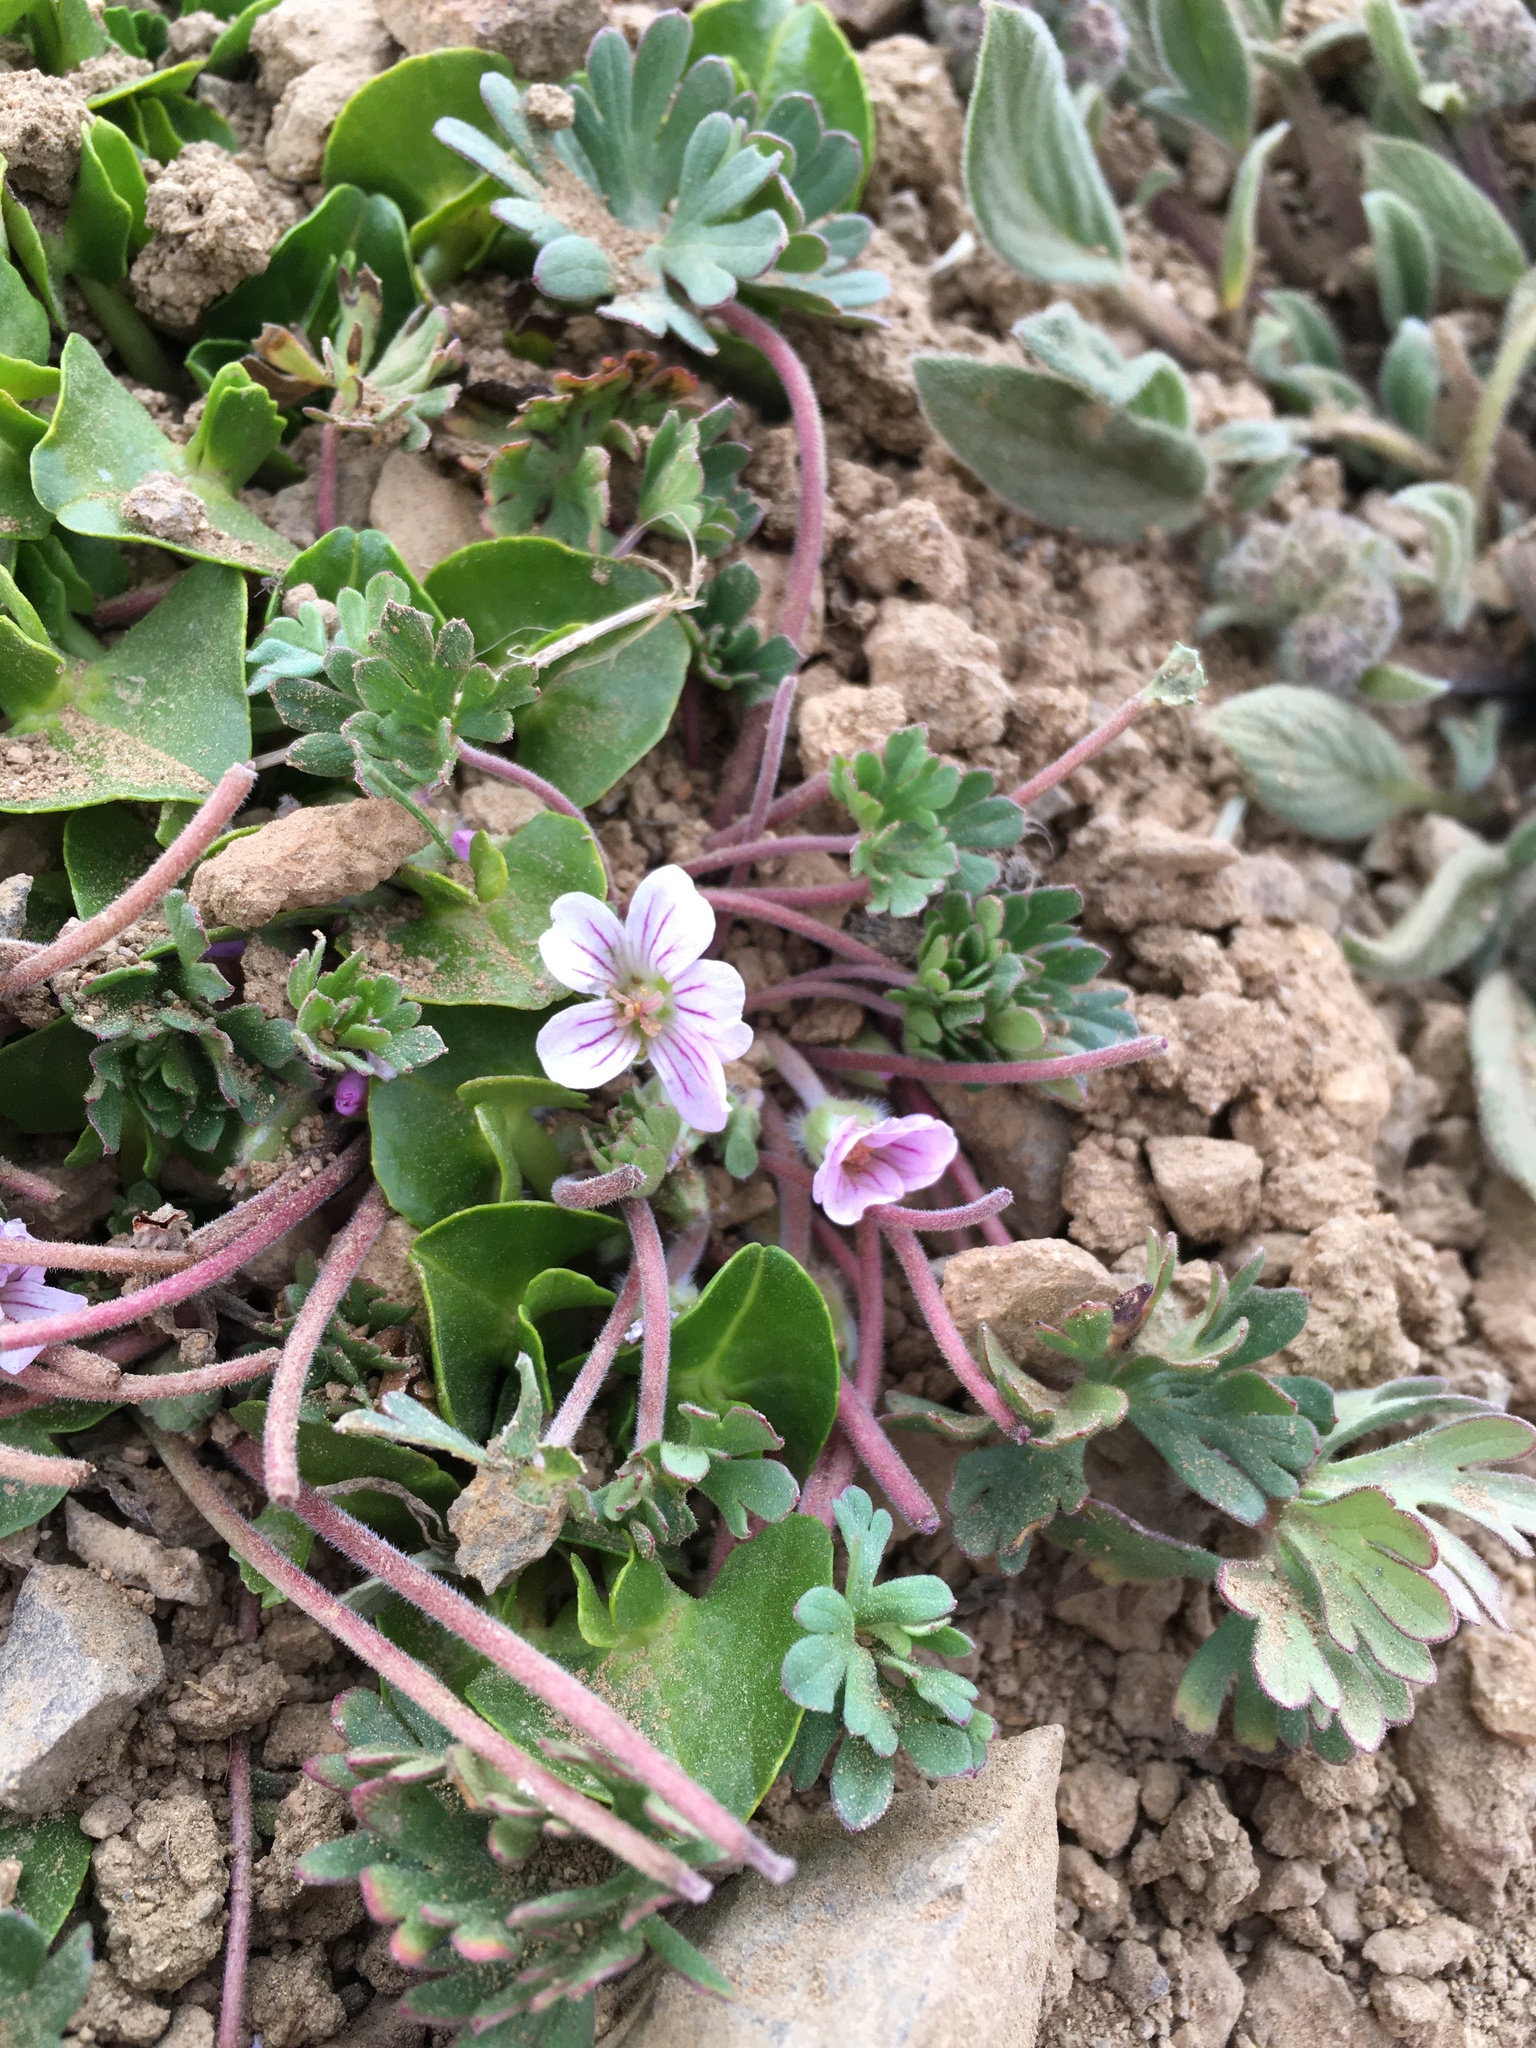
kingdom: Plantae
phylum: Tracheophyta
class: Magnoliopsida
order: Geraniales
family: Geraniaceae
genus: Geranium
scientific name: Geranium sessiliflorum
